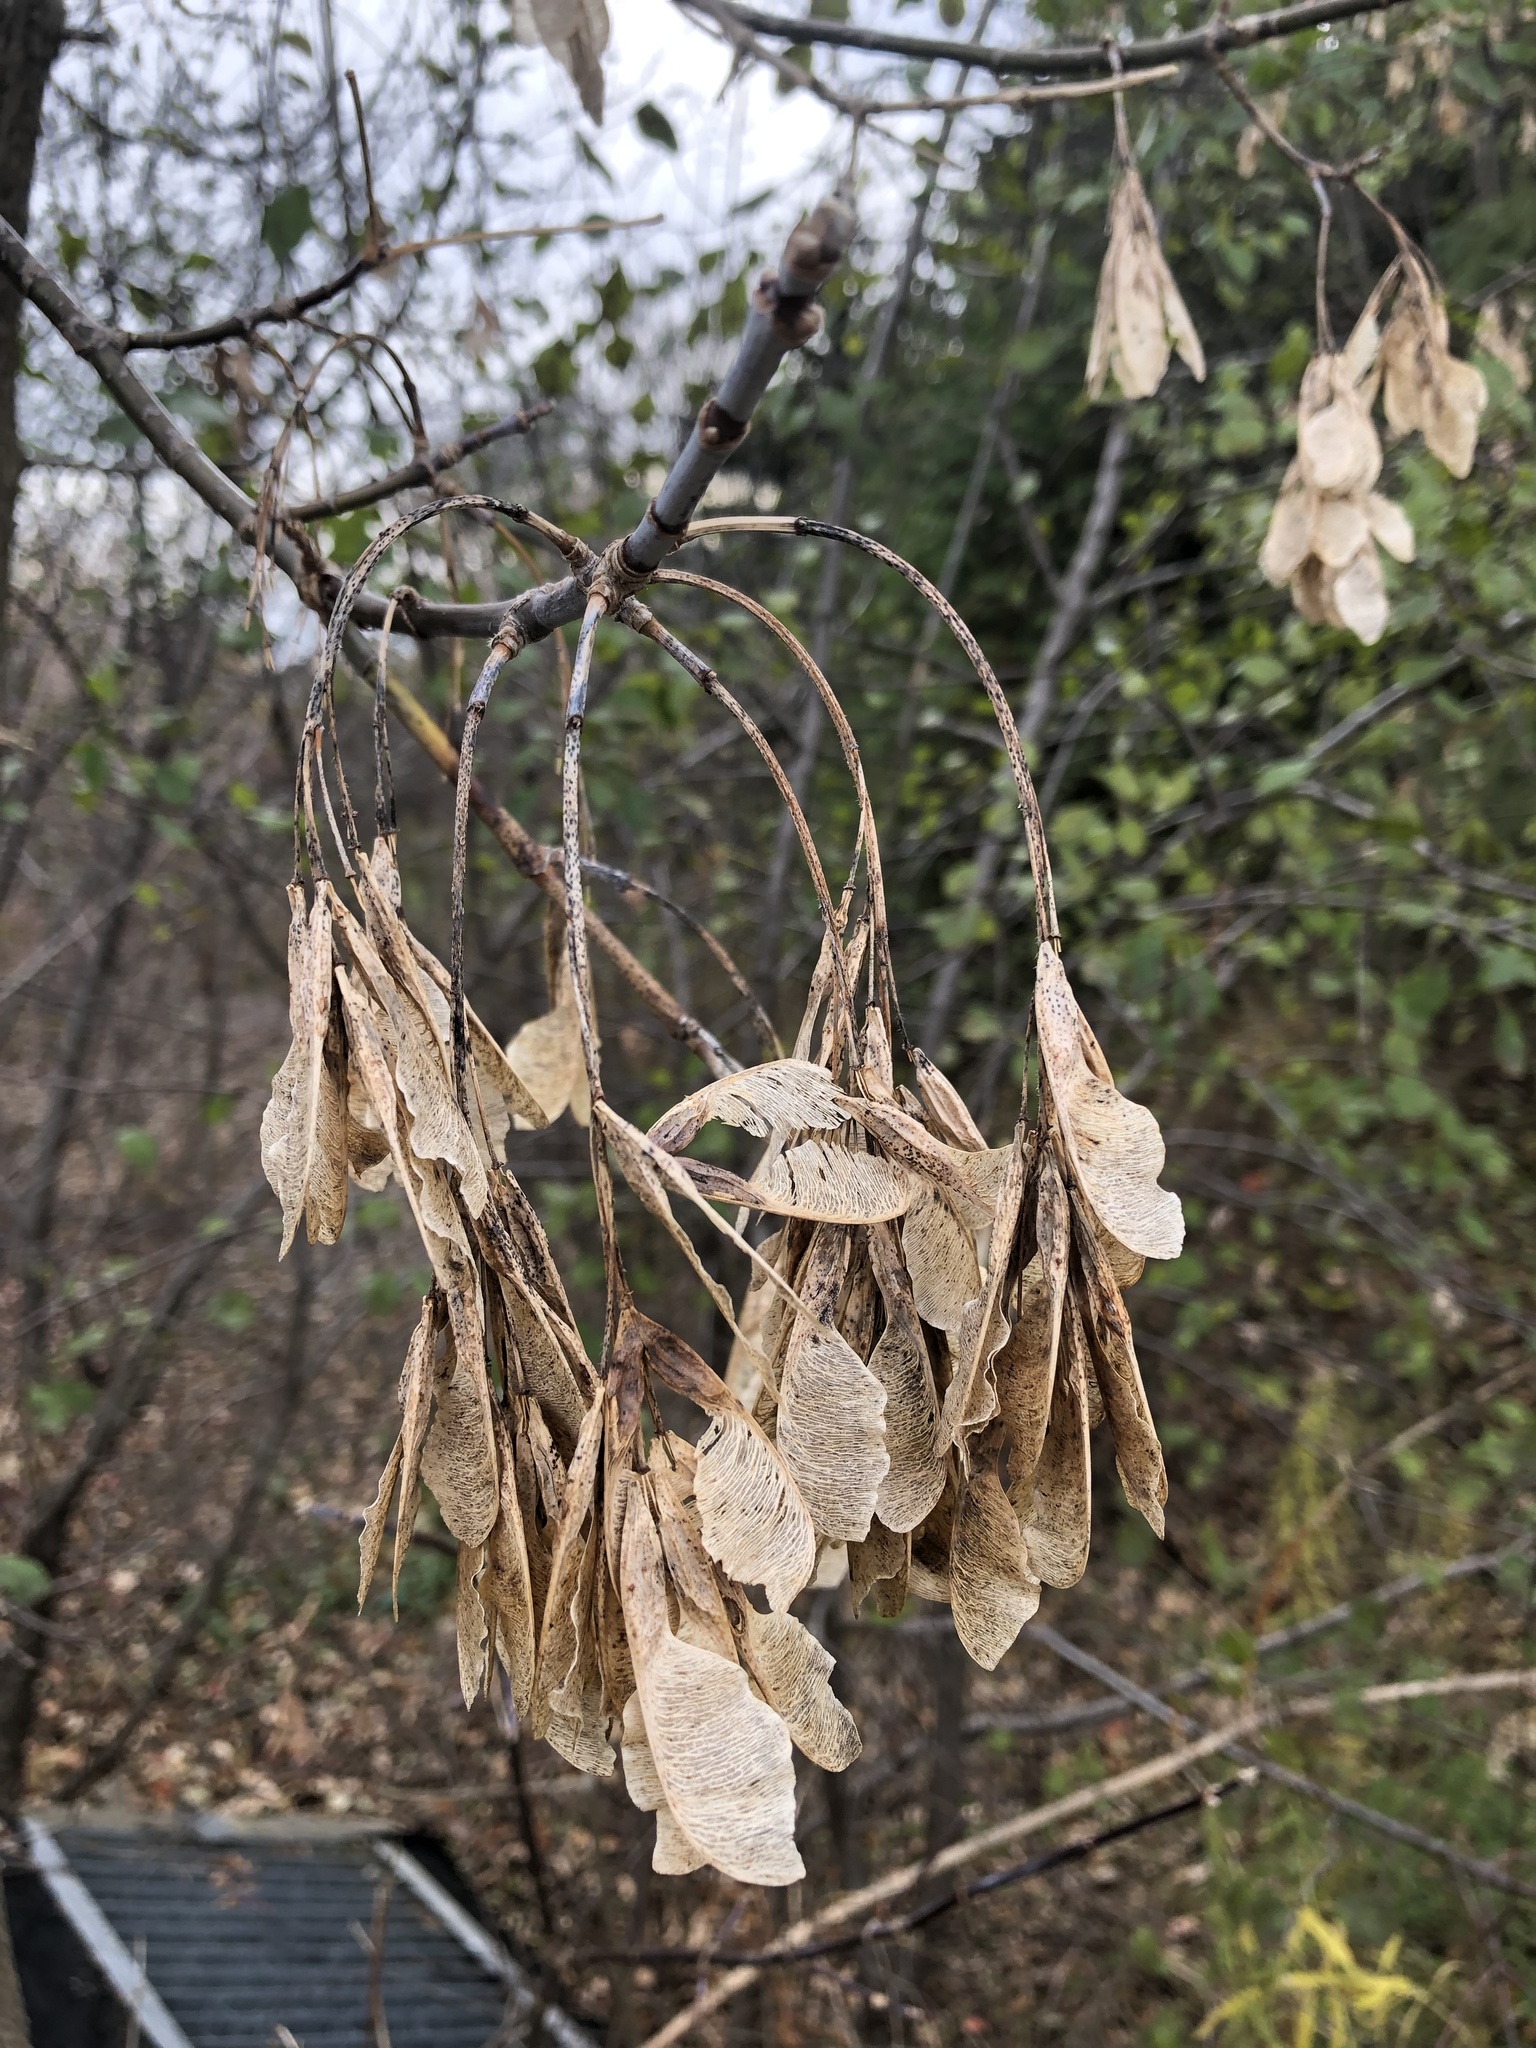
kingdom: Plantae
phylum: Tracheophyta
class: Magnoliopsida
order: Sapindales
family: Sapindaceae
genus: Acer
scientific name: Acer negundo
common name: Ashleaf maple
